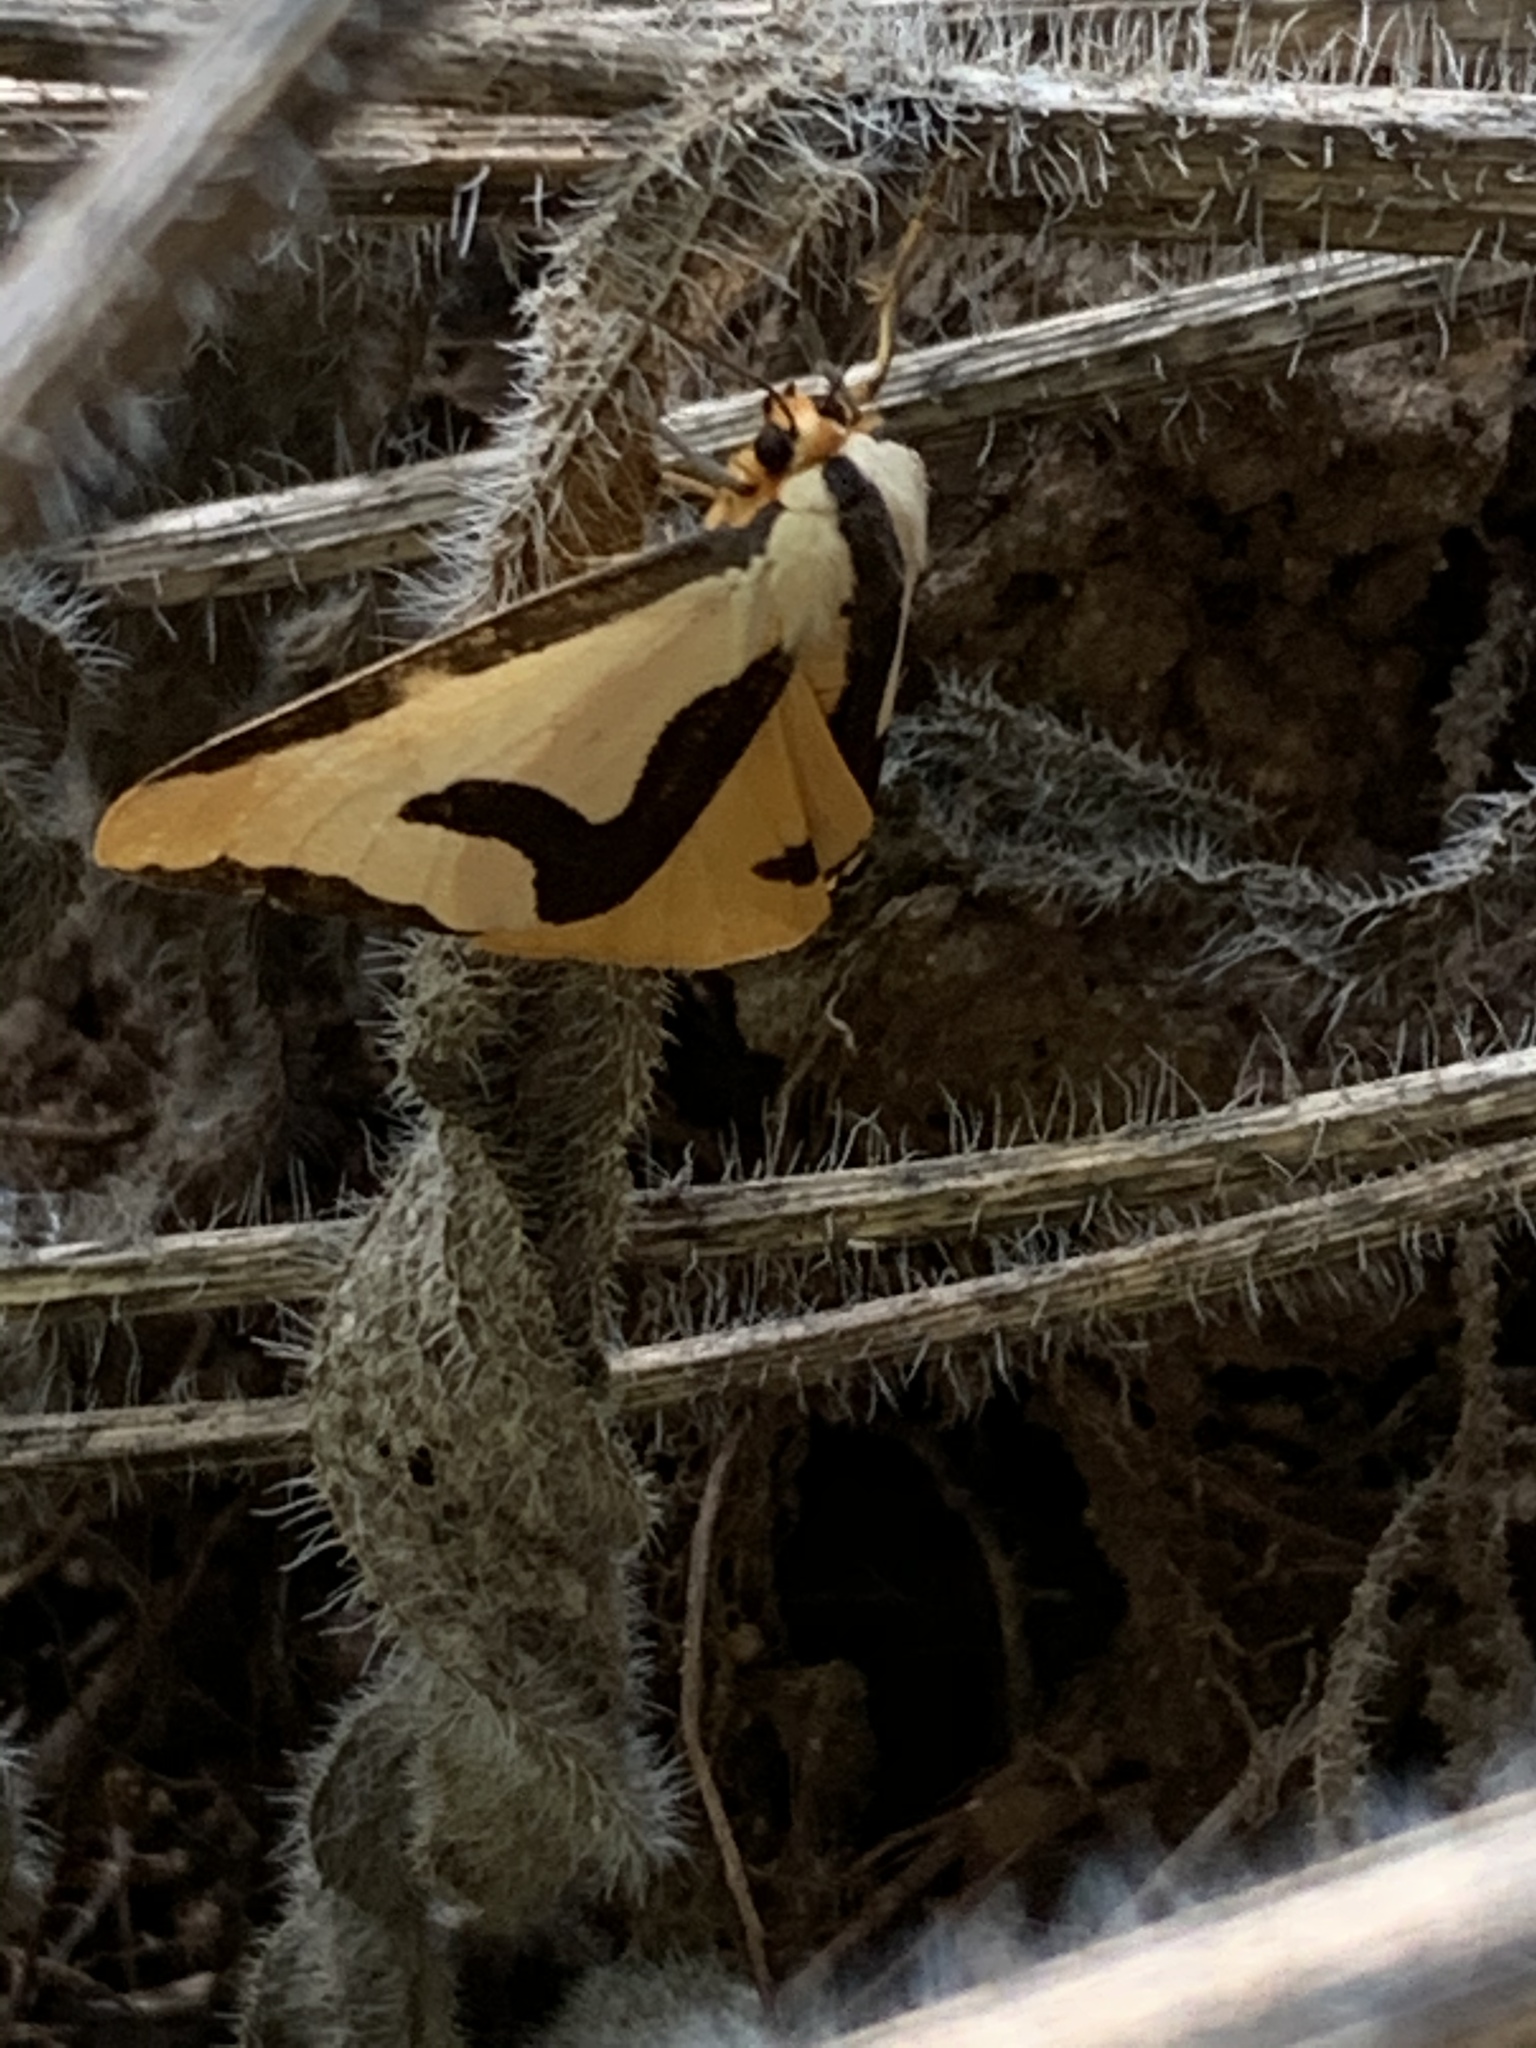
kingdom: Animalia
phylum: Arthropoda
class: Insecta
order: Lepidoptera
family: Erebidae
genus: Haploa
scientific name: Haploa clymene
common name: Clymene moth
